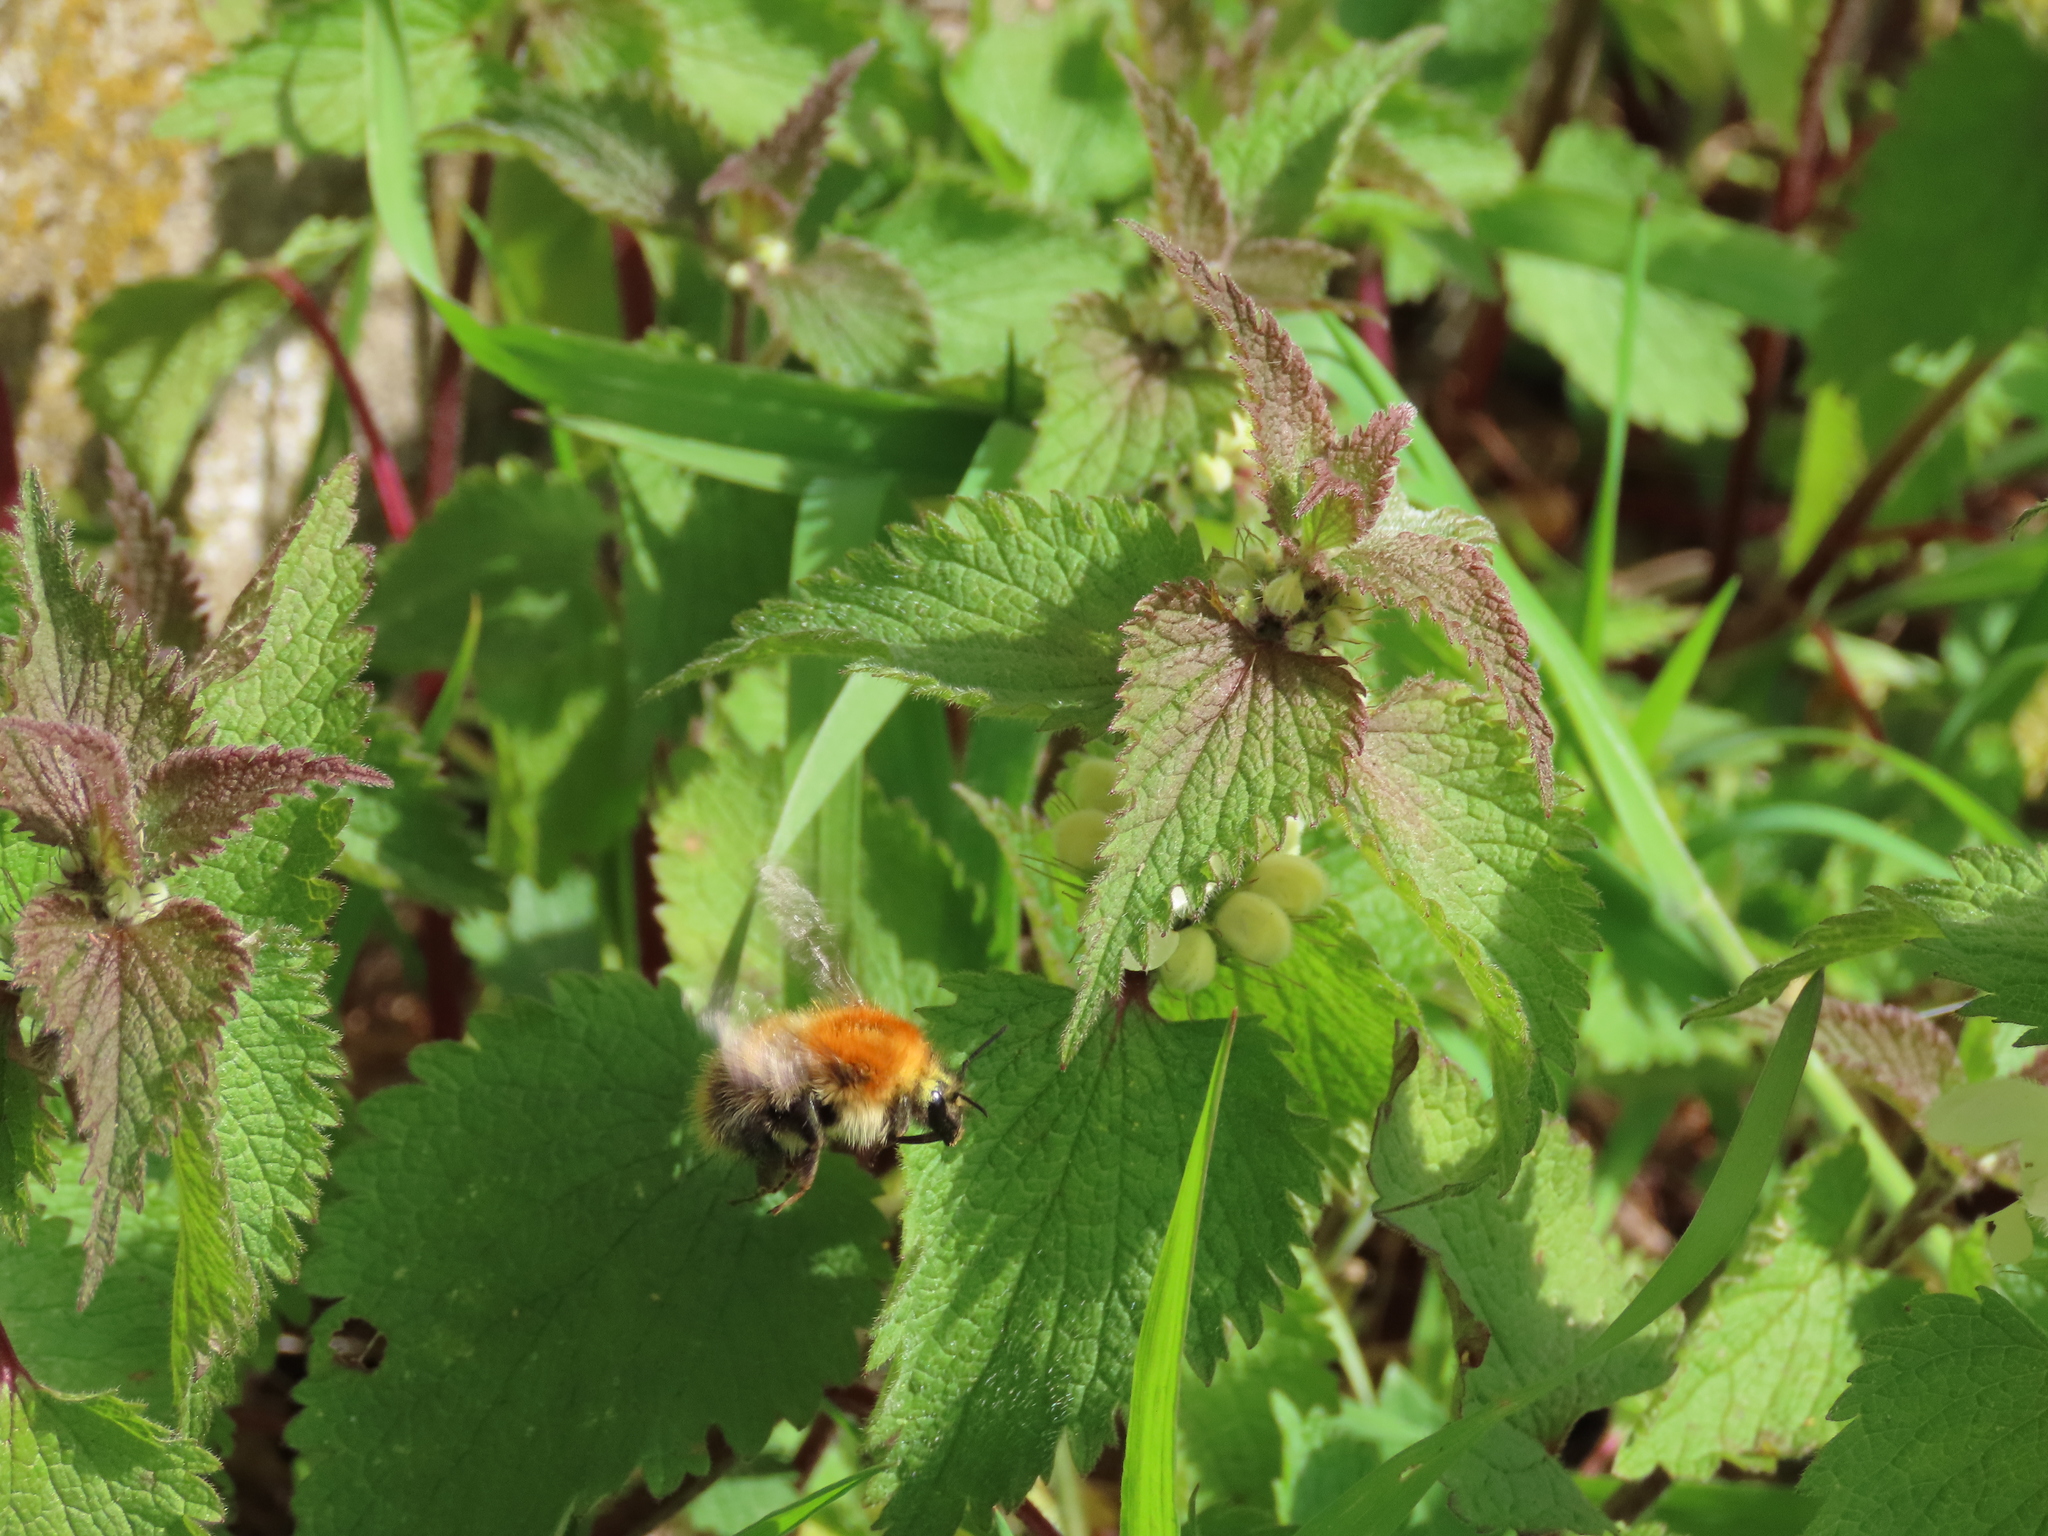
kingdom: Animalia
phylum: Arthropoda
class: Insecta
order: Hymenoptera
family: Apidae
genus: Bombus
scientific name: Bombus pascuorum
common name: Common carder bee
